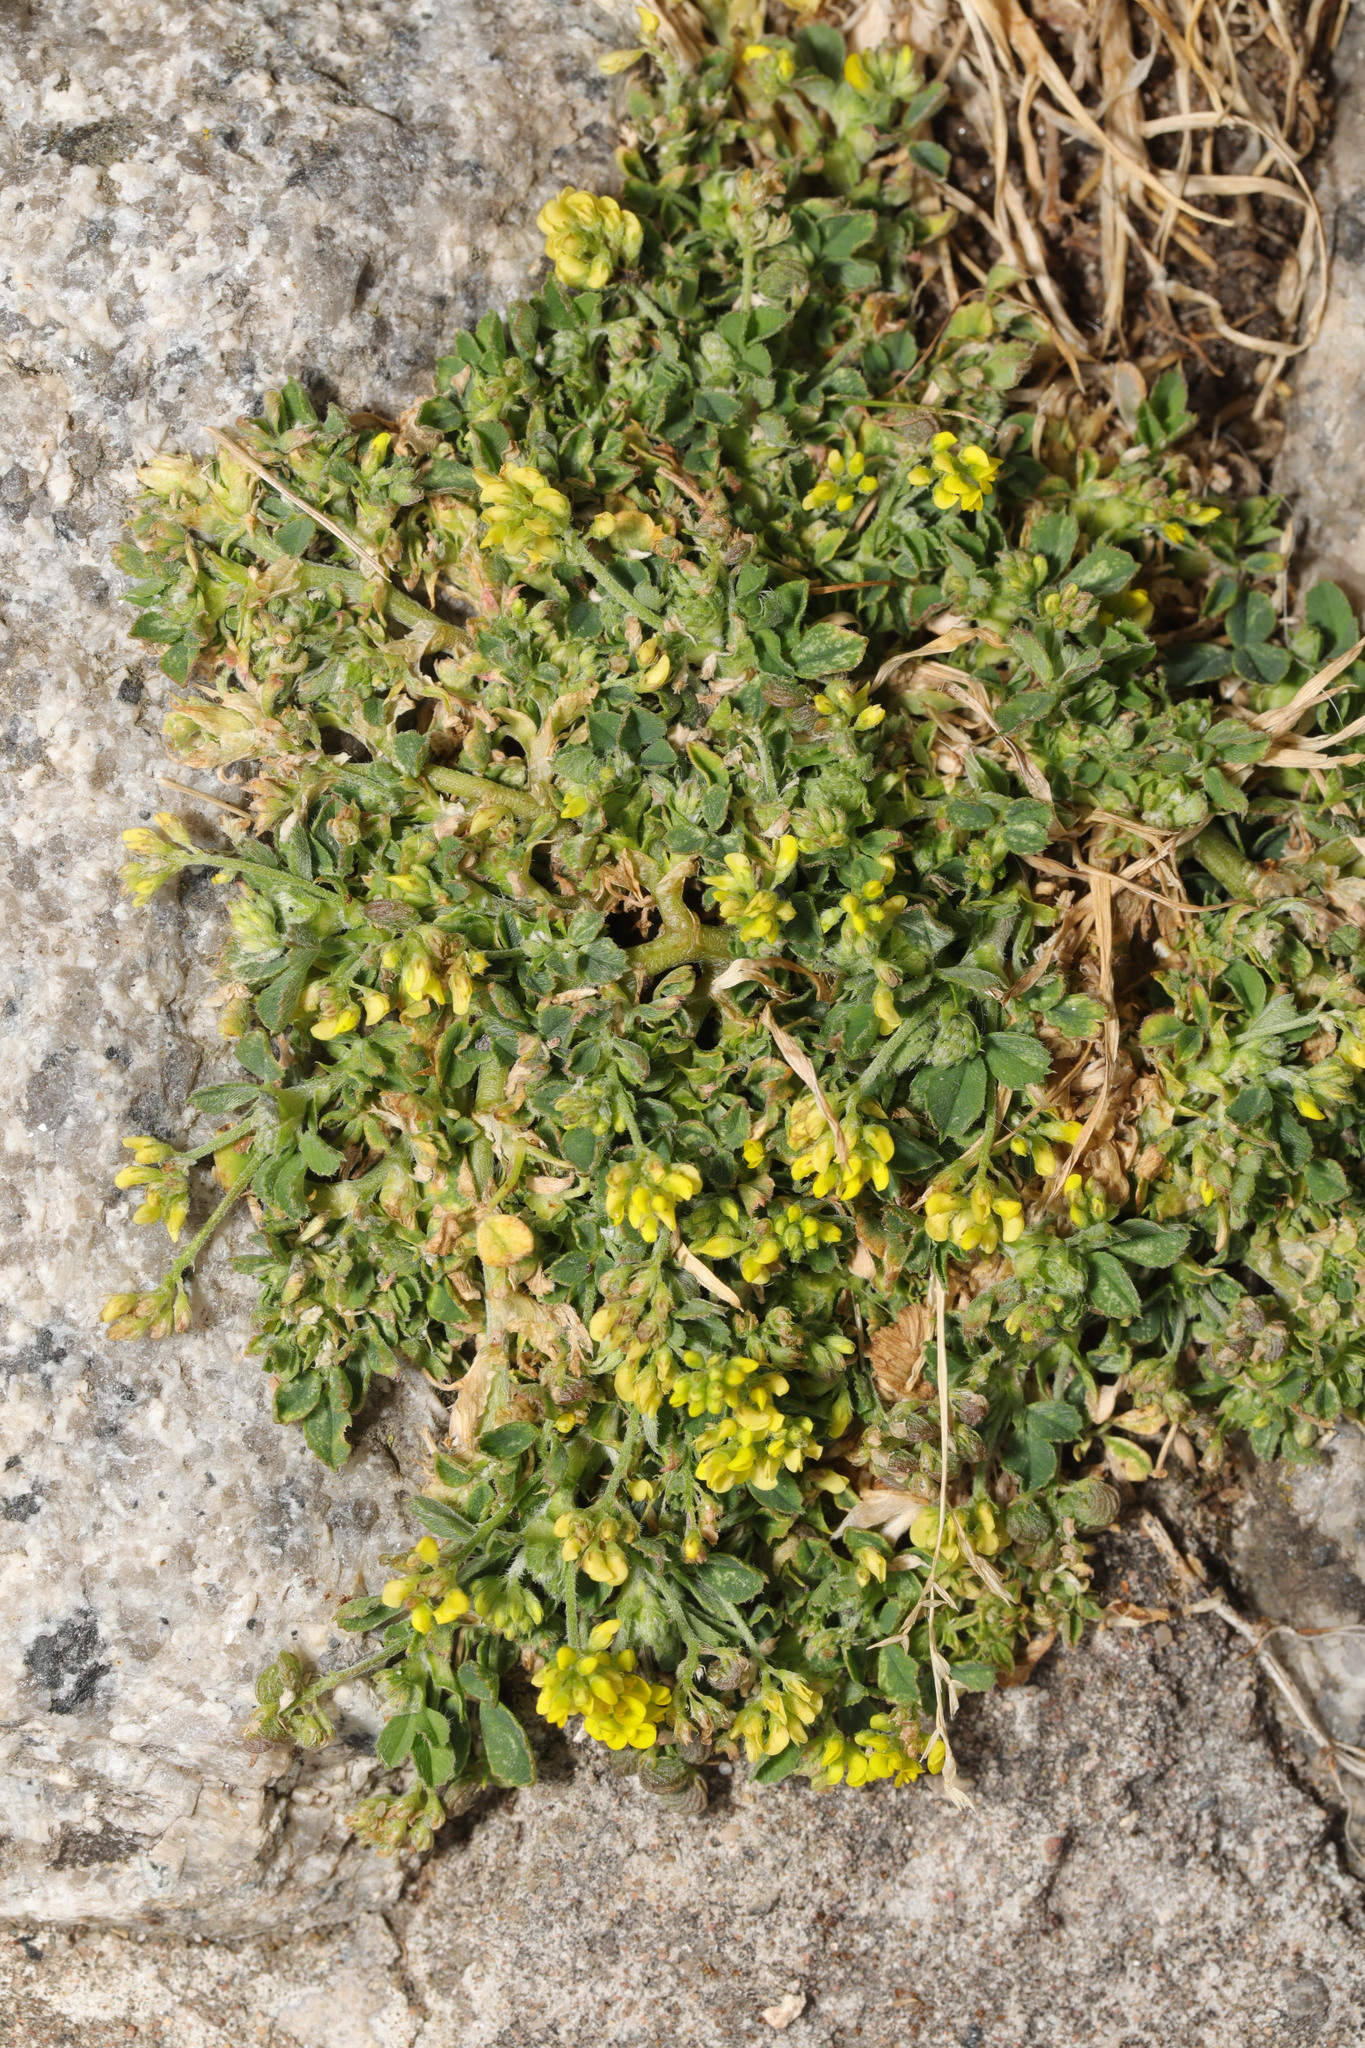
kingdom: Plantae
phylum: Tracheophyta
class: Magnoliopsida
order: Fabales
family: Fabaceae
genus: Medicago
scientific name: Medicago lupulina
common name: Black medick
